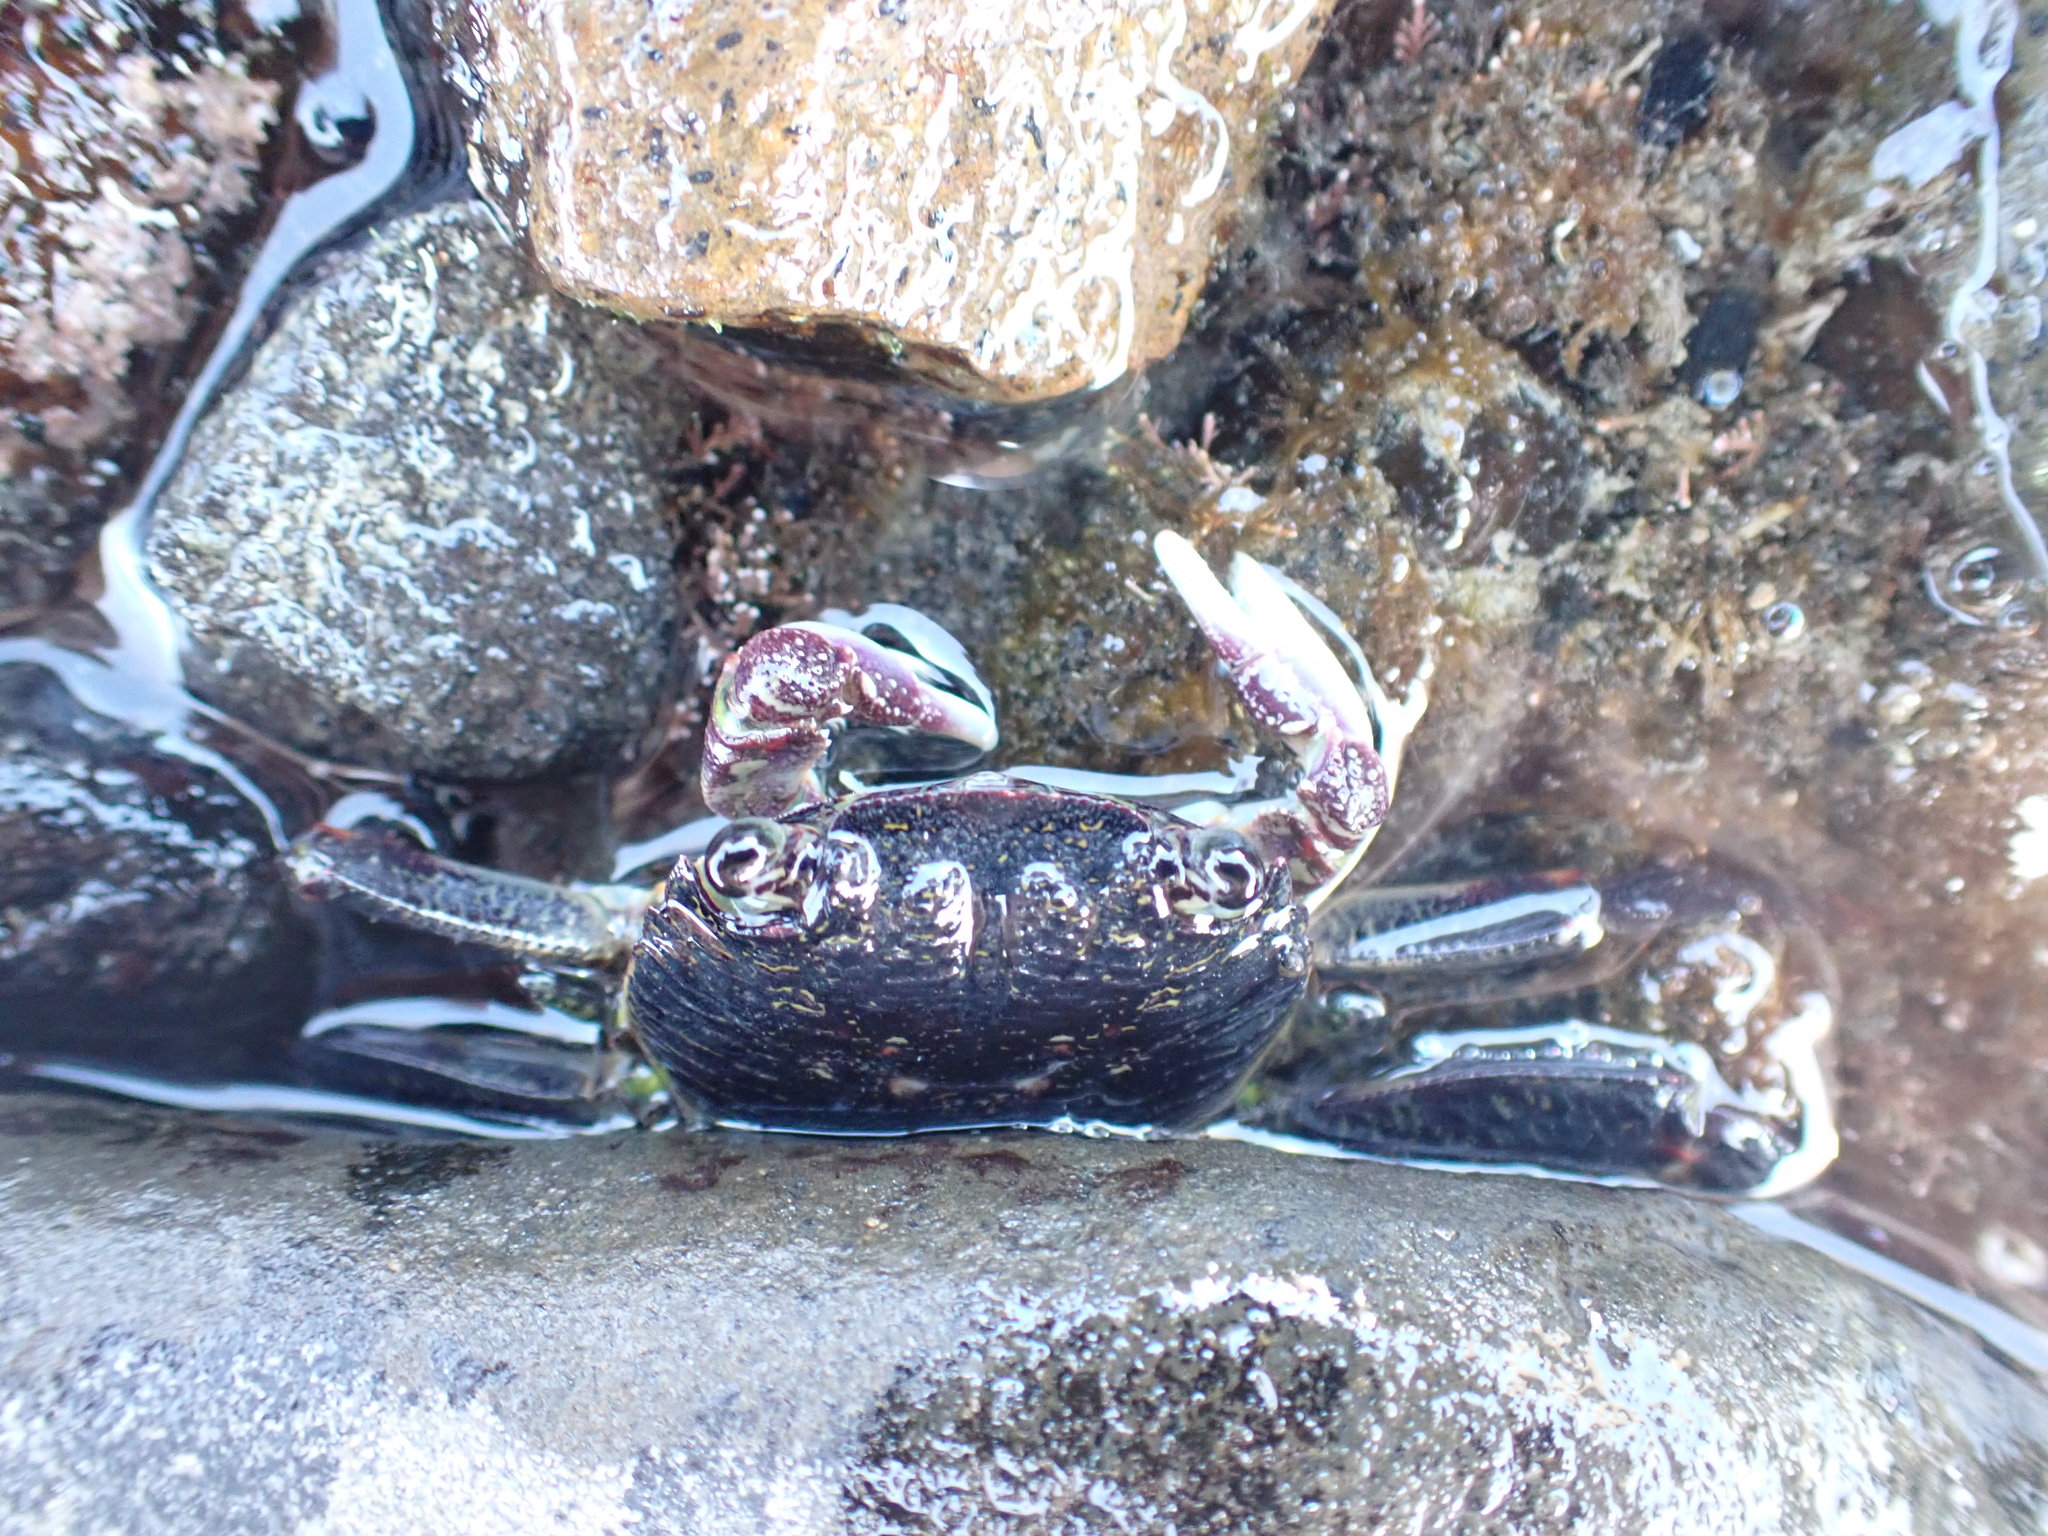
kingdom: Animalia
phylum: Arthropoda
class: Malacostraca
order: Decapoda
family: Grapsidae
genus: Leptograpsus
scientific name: Leptograpsus variegatus
